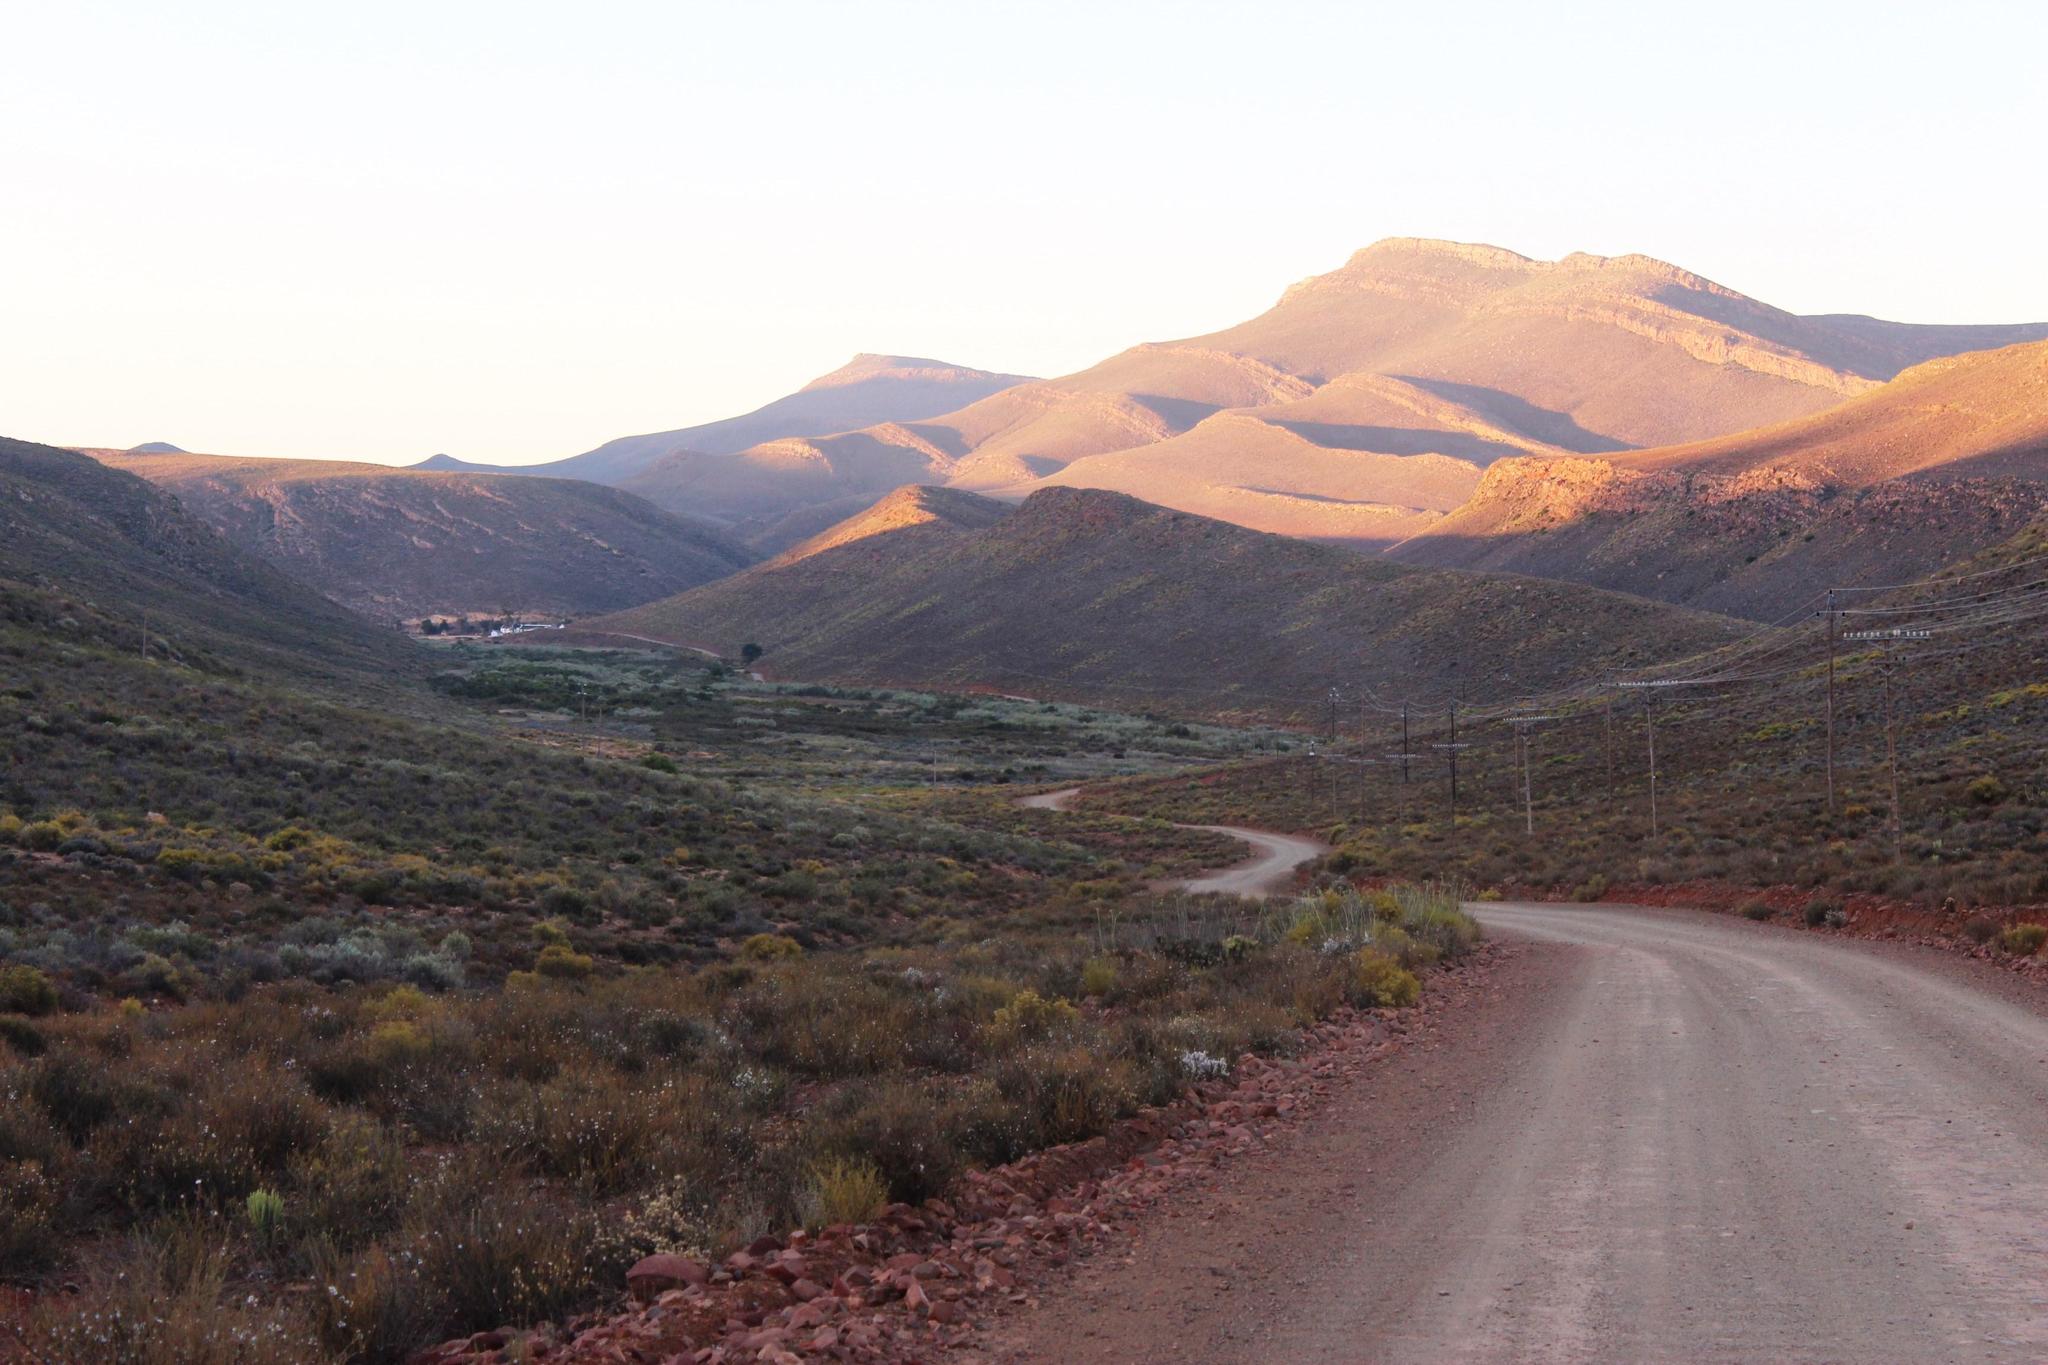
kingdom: Plantae
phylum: Tracheophyta
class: Magnoliopsida
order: Caryophyllales
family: Aizoaceae
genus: Aizoon
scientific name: Aizoon africanum
